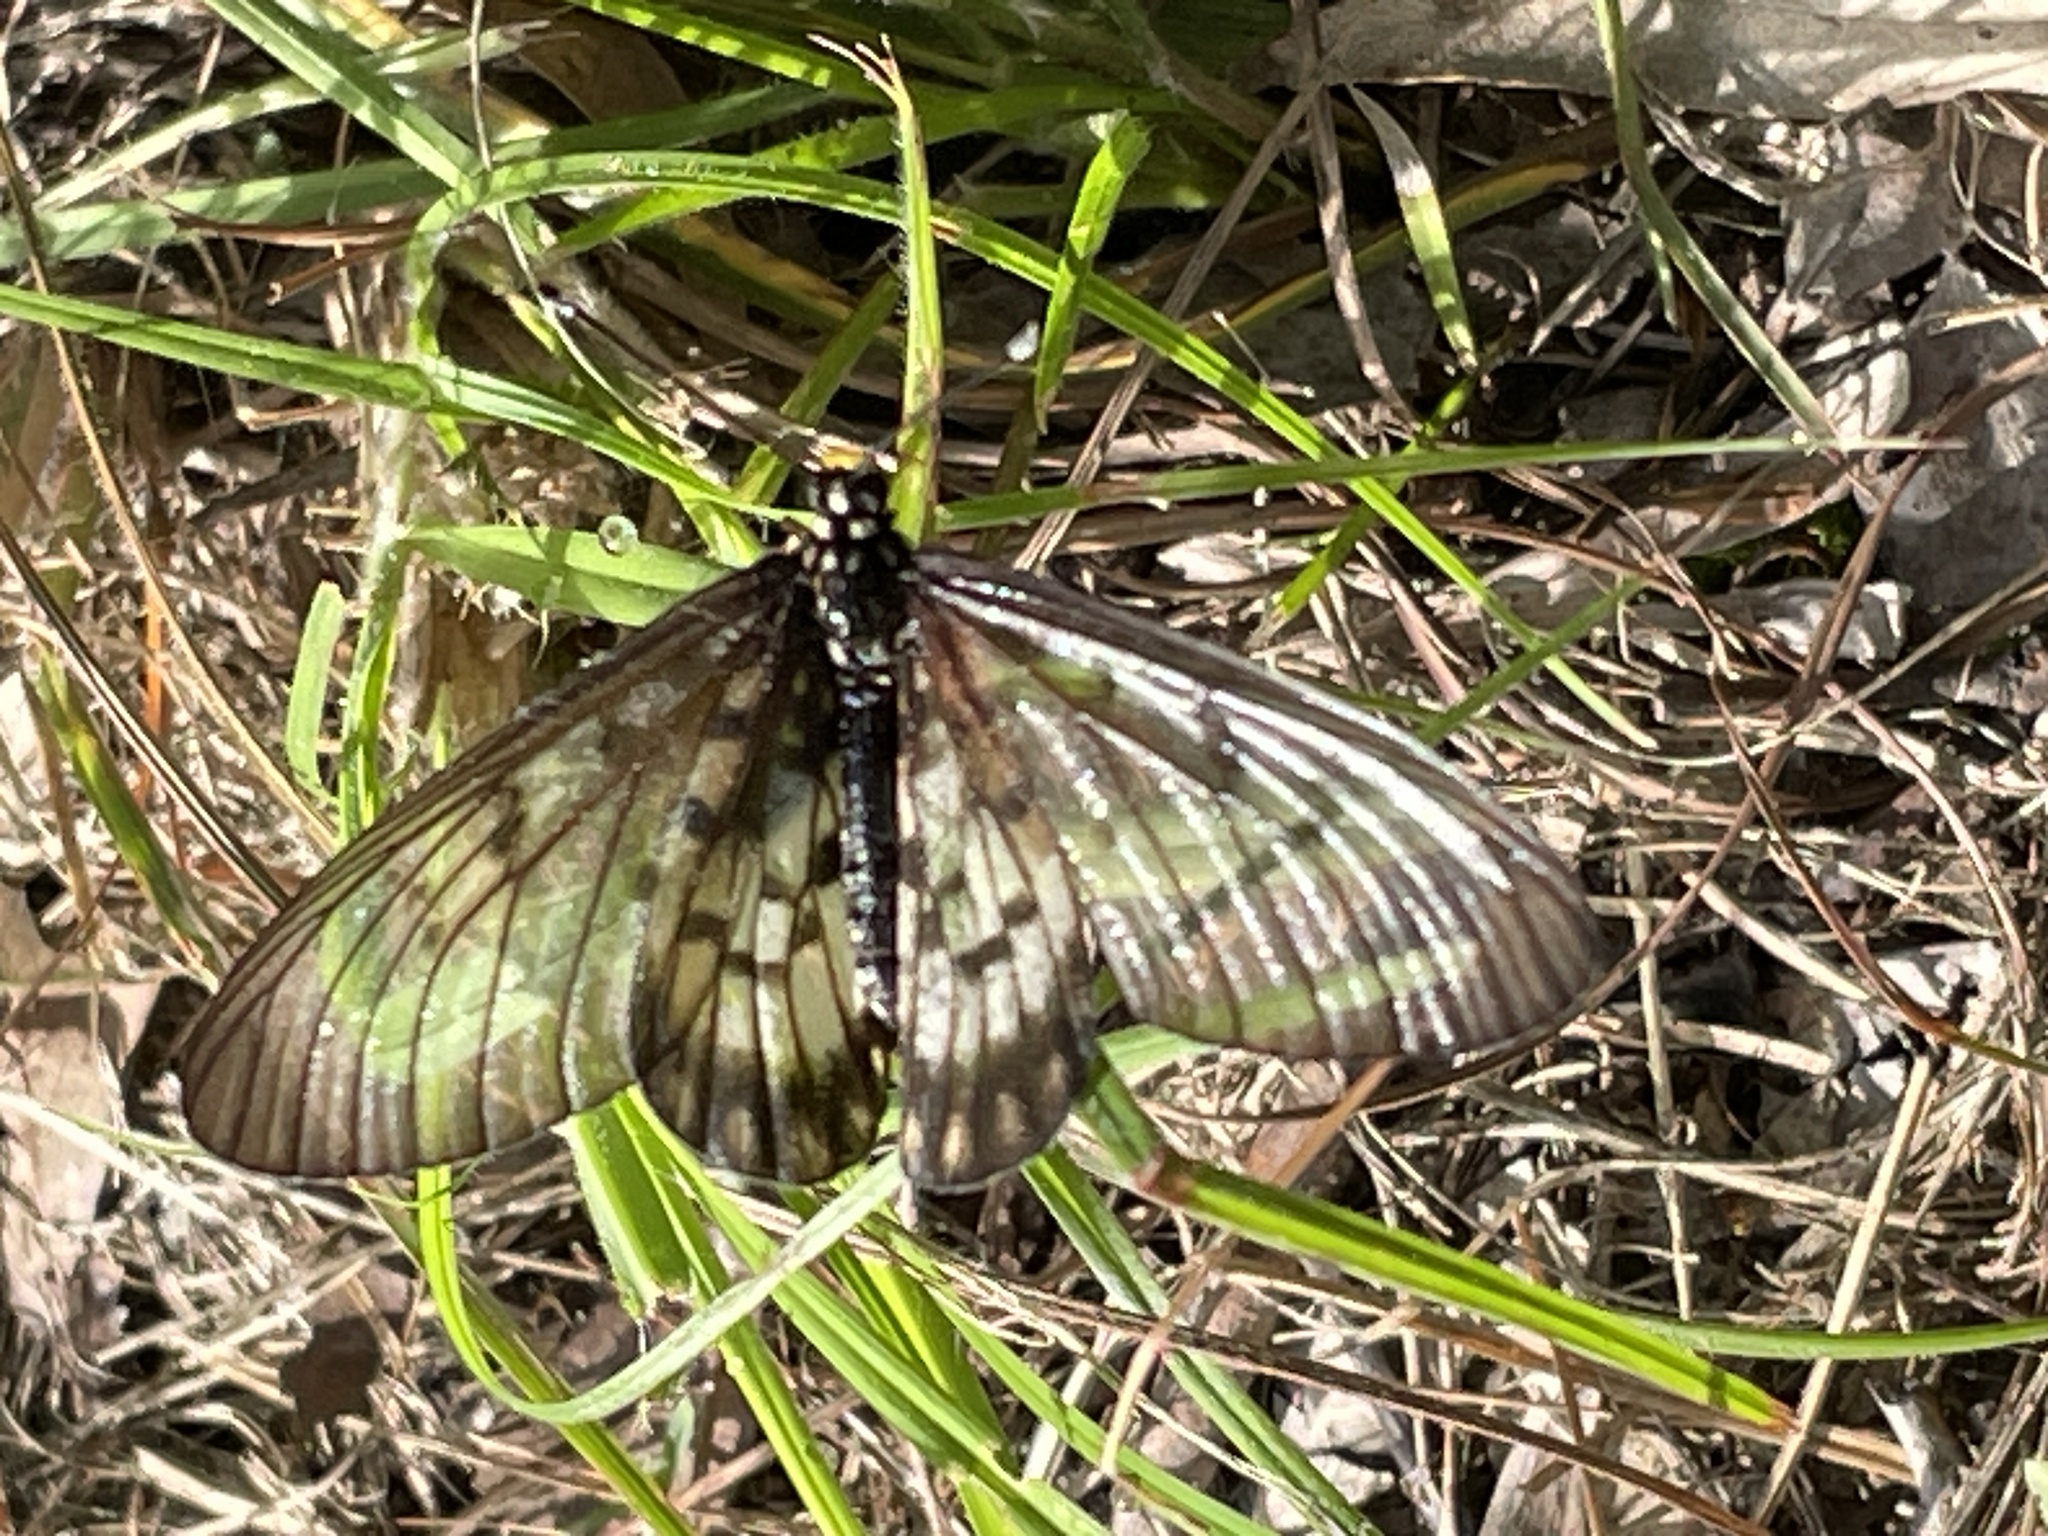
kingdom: Animalia
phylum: Arthropoda
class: Insecta
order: Lepidoptera
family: Nymphalidae
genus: Acraea
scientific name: Acraea andromacha
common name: Glasswing
